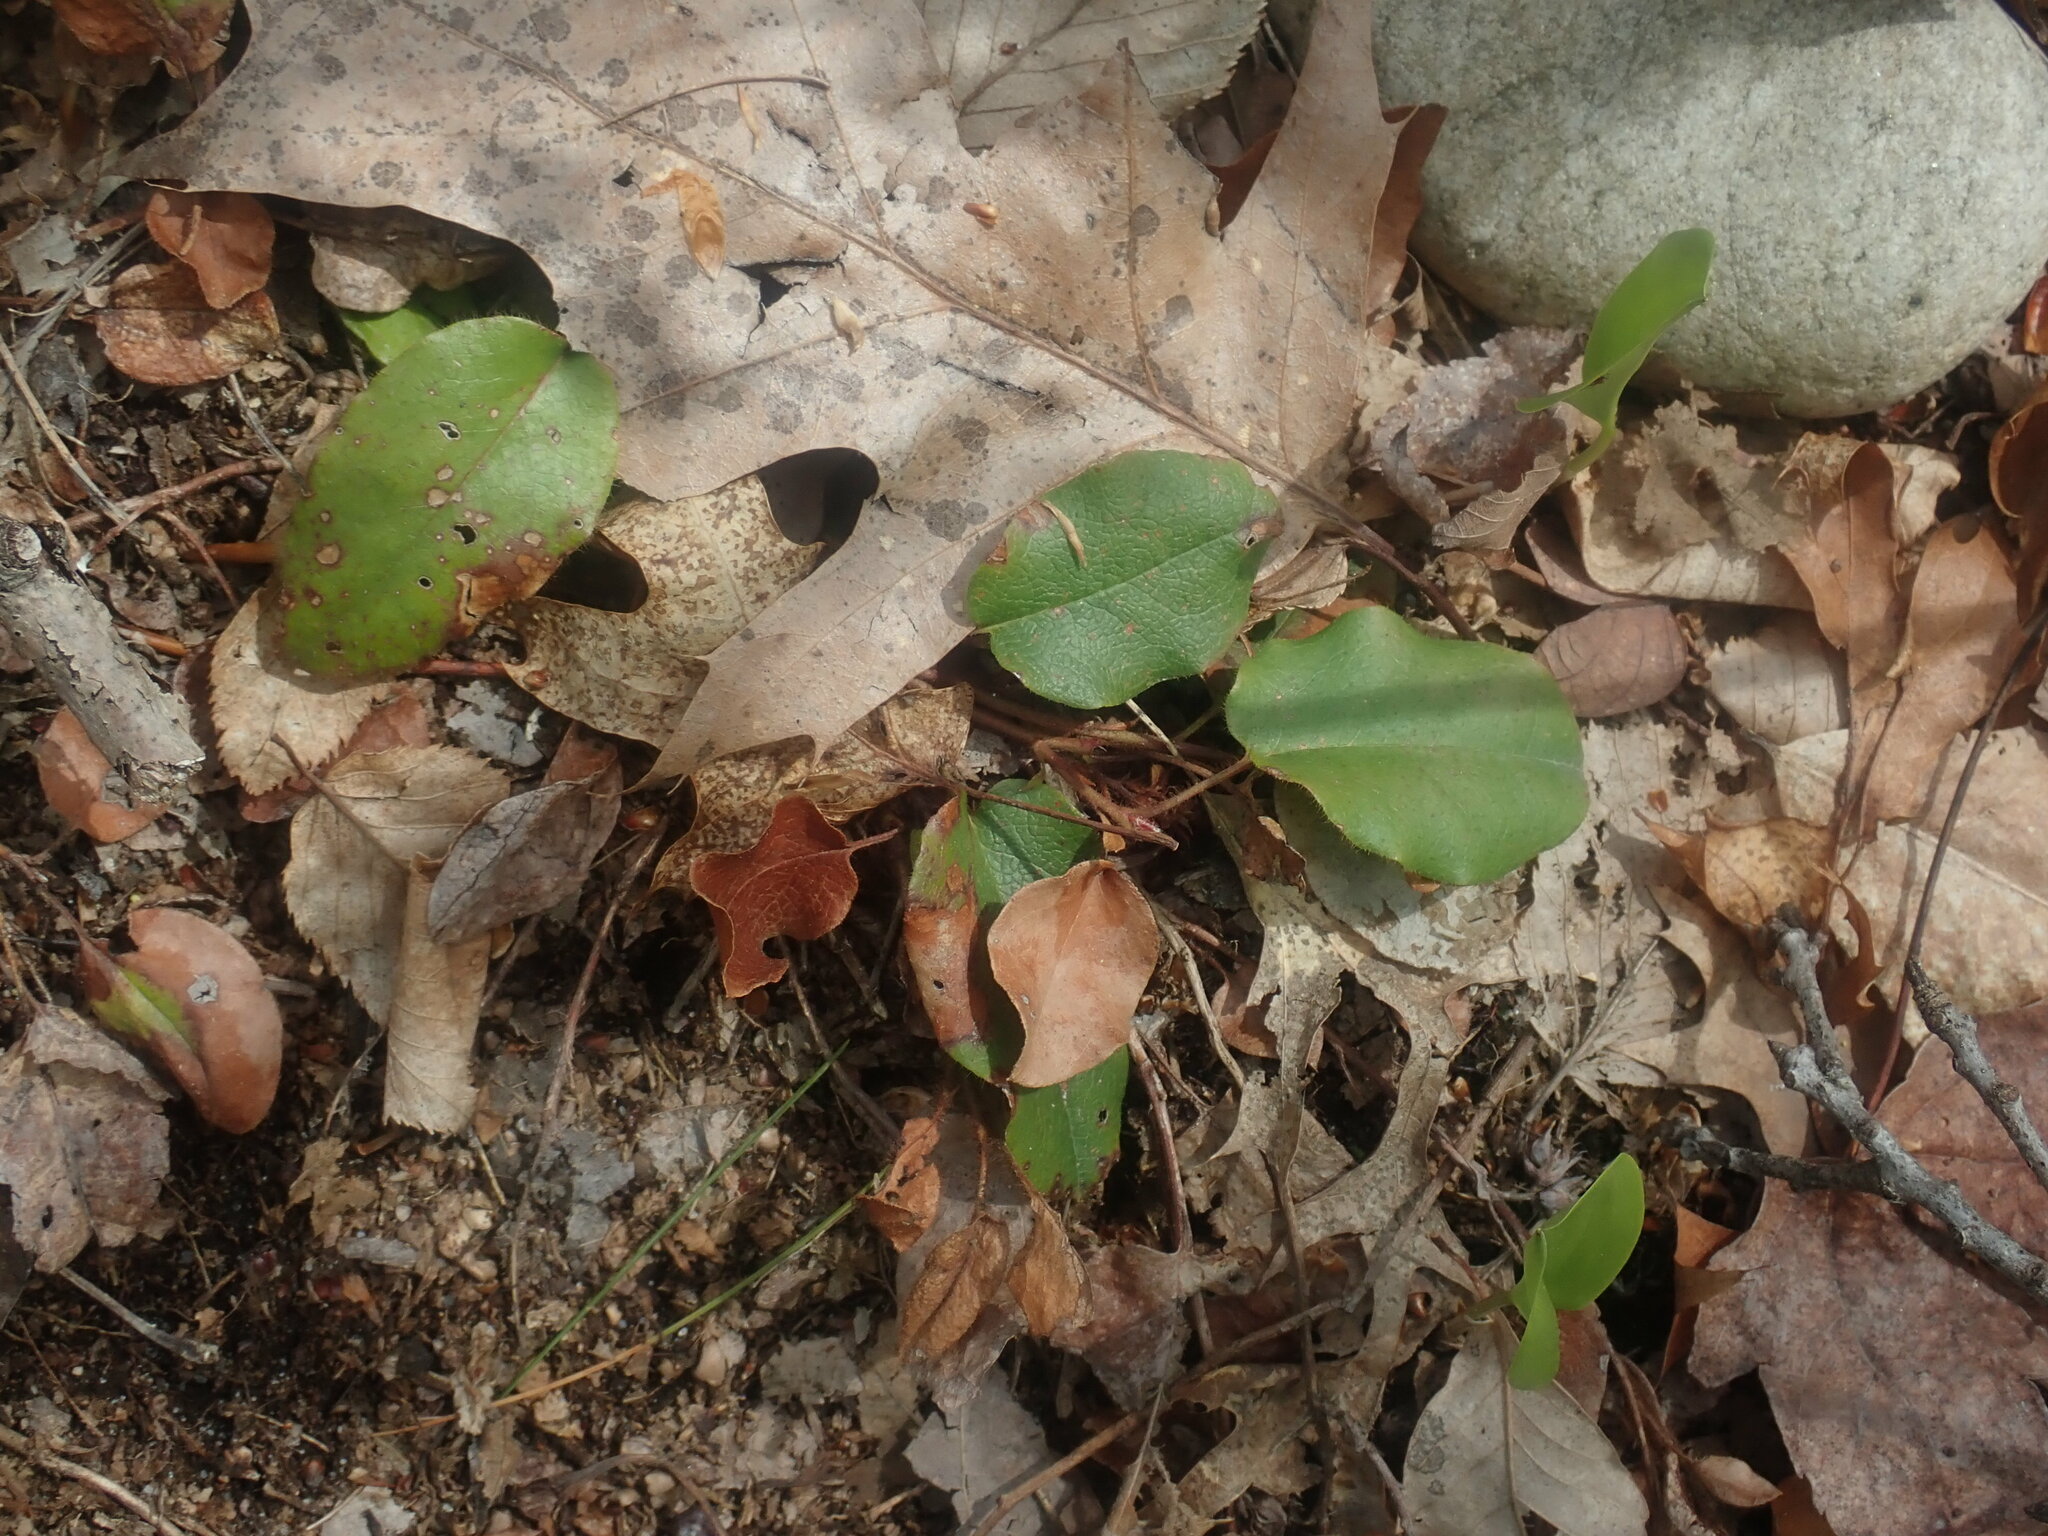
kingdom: Plantae
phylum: Tracheophyta
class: Magnoliopsida
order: Ericales
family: Ericaceae
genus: Epigaea
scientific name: Epigaea repens
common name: Gravelroot
